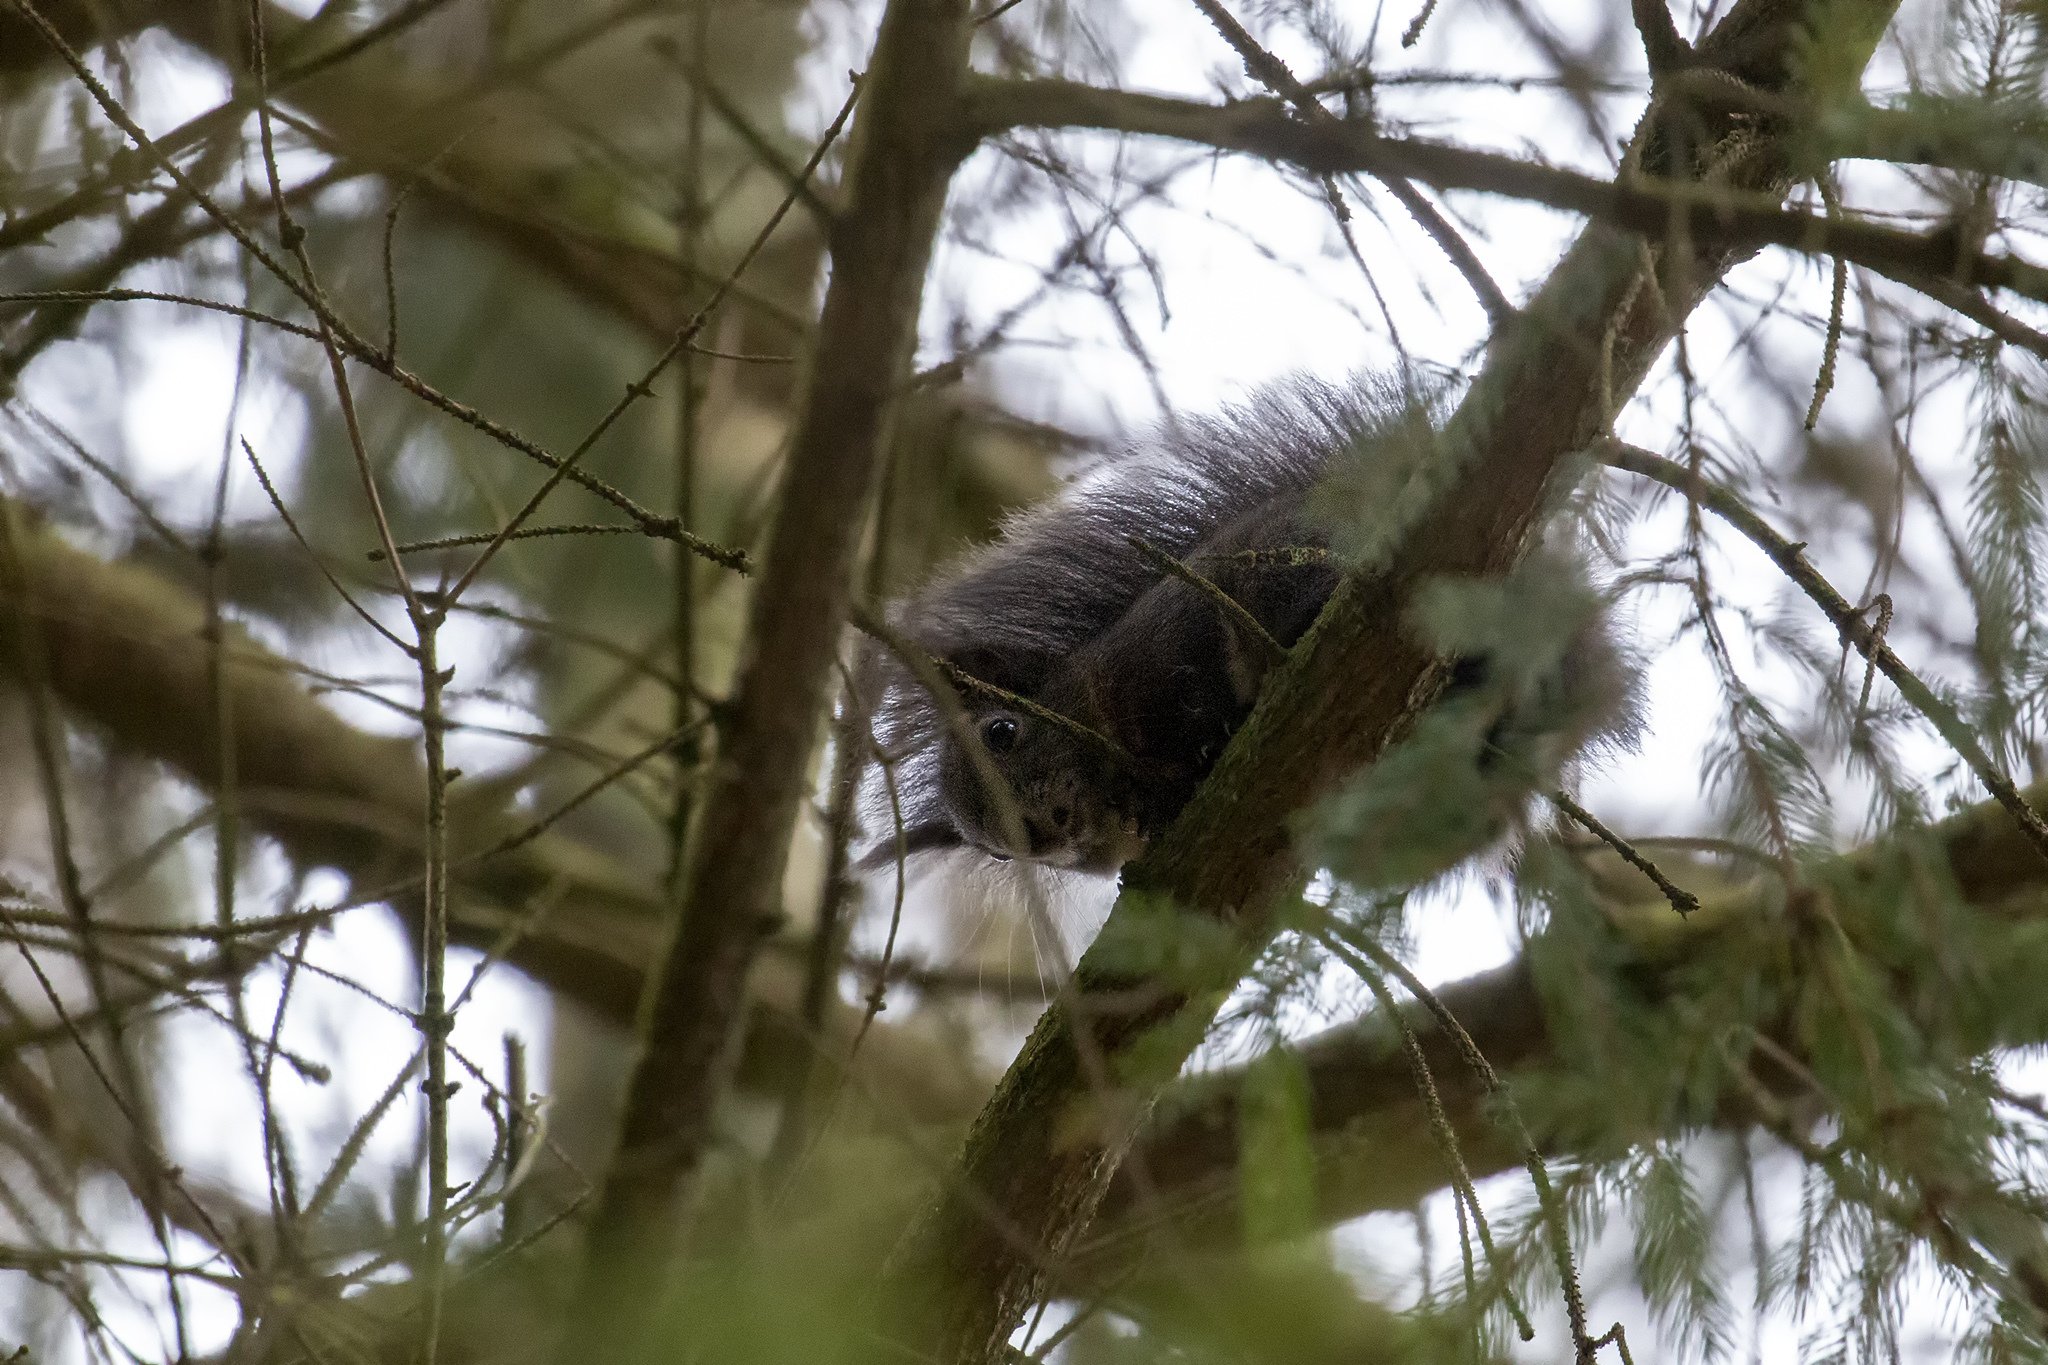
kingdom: Animalia
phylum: Chordata
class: Mammalia
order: Rodentia
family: Sciuridae
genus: Sciurus
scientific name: Sciurus vulgaris
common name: Eurasian red squirrel
